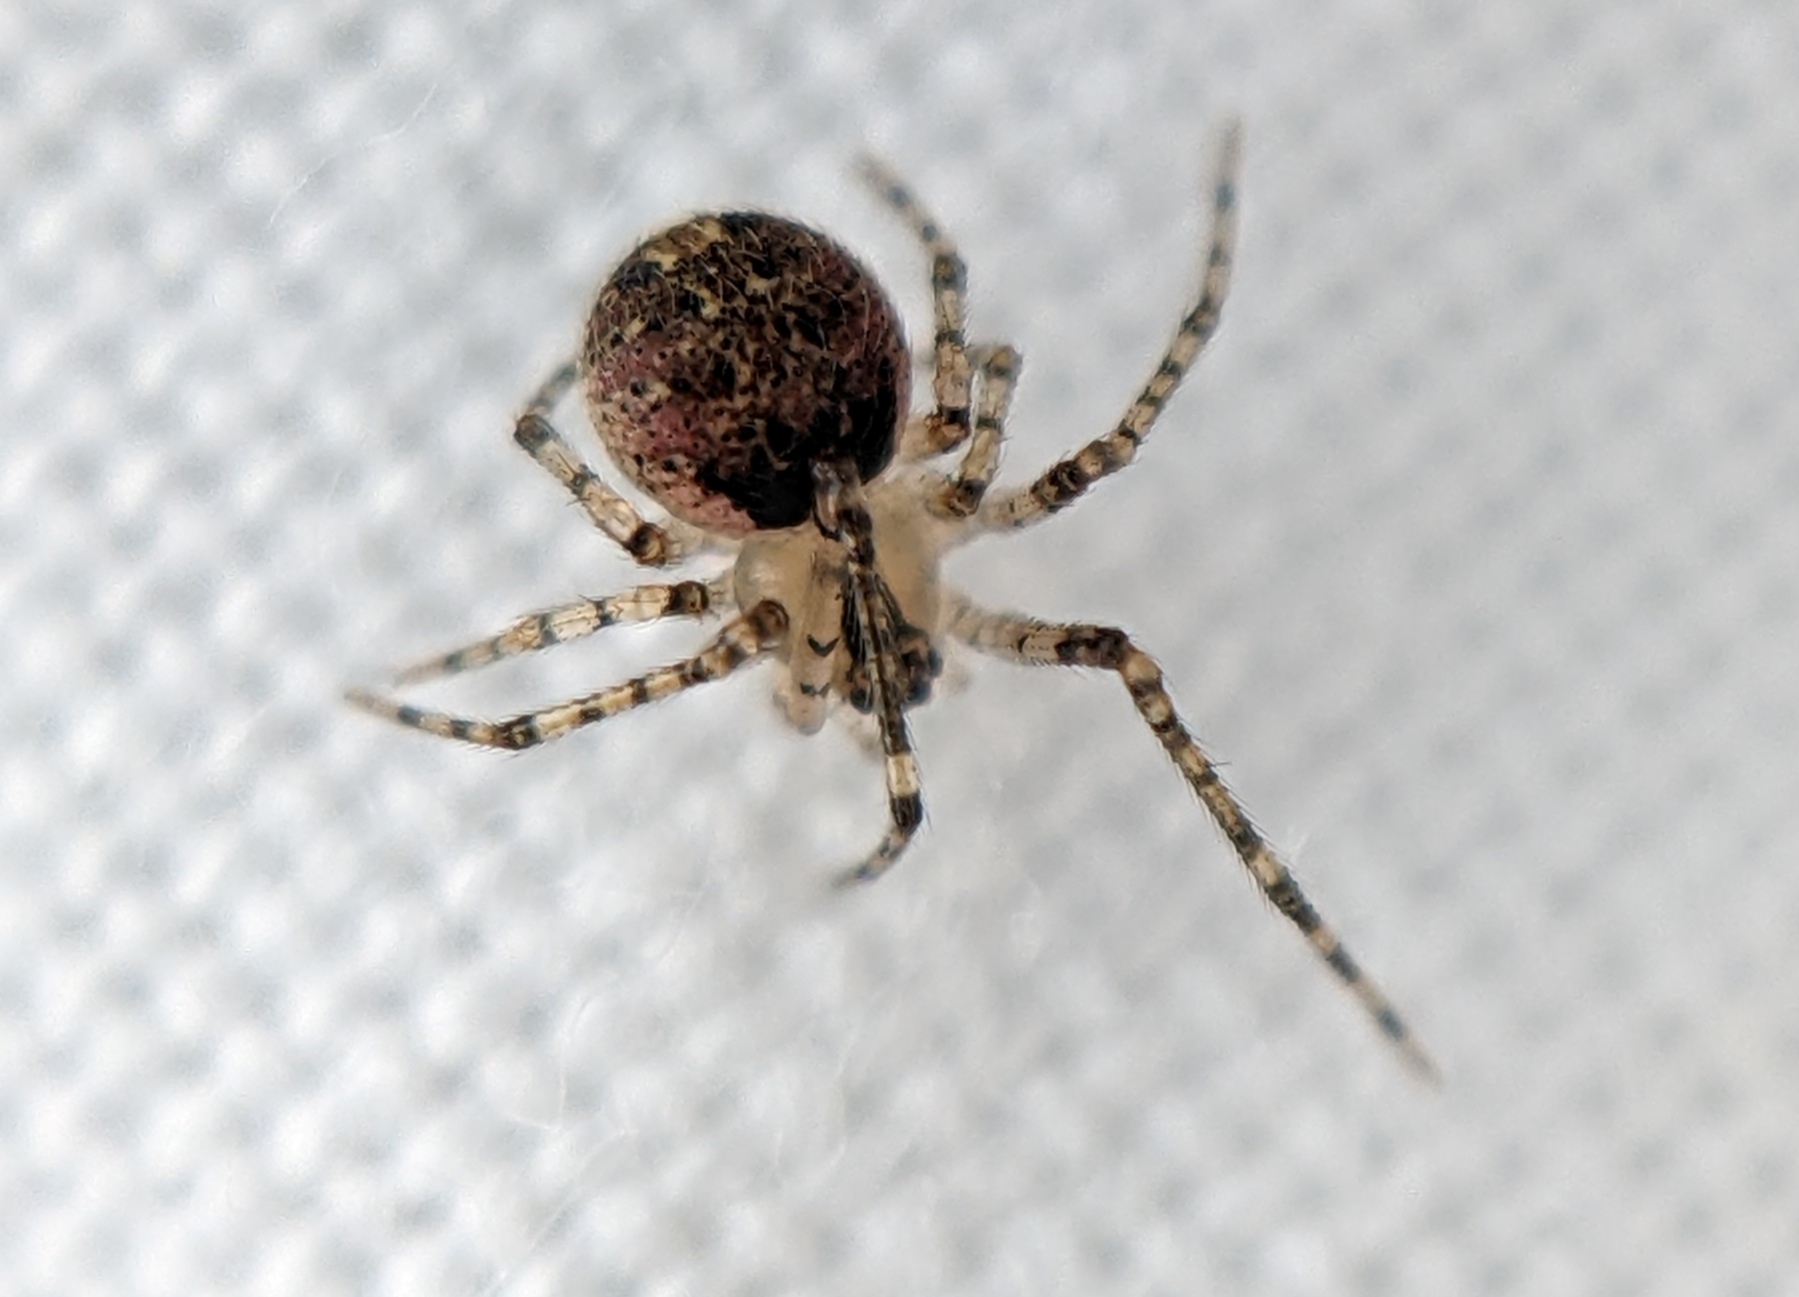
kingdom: Animalia
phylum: Arthropoda
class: Arachnida
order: Araneae
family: Theridiidae
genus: Platnickina
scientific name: Platnickina tincta
